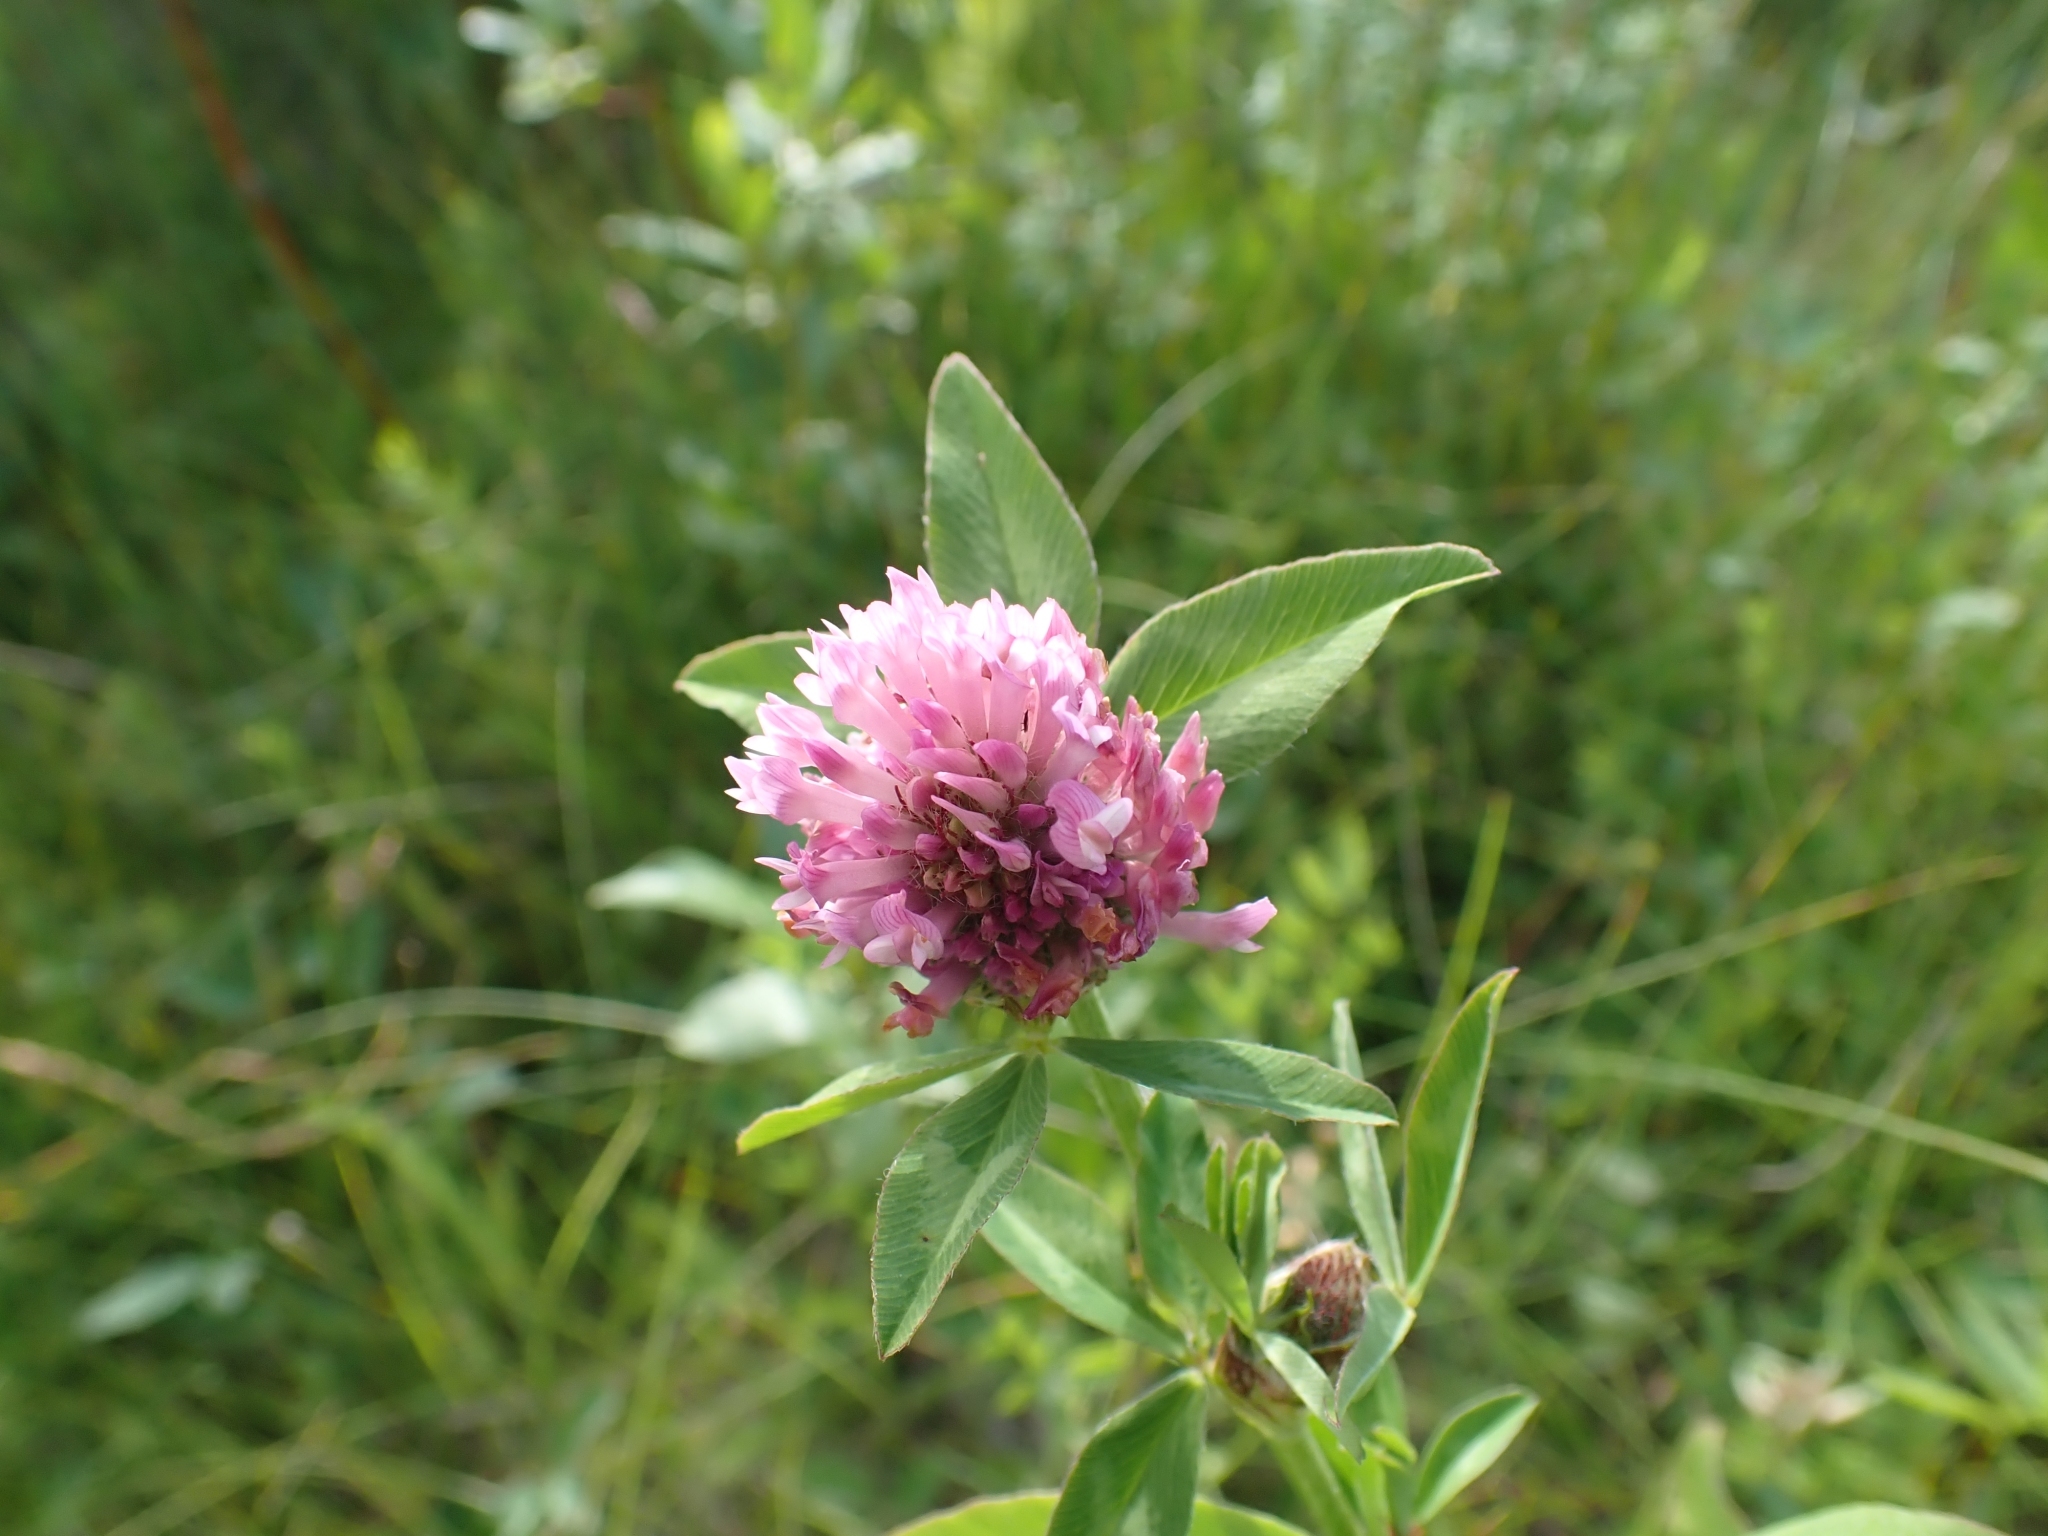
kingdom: Plantae
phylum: Tracheophyta
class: Magnoliopsida
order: Fabales
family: Fabaceae
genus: Trifolium
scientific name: Trifolium pratense
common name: Red clover
